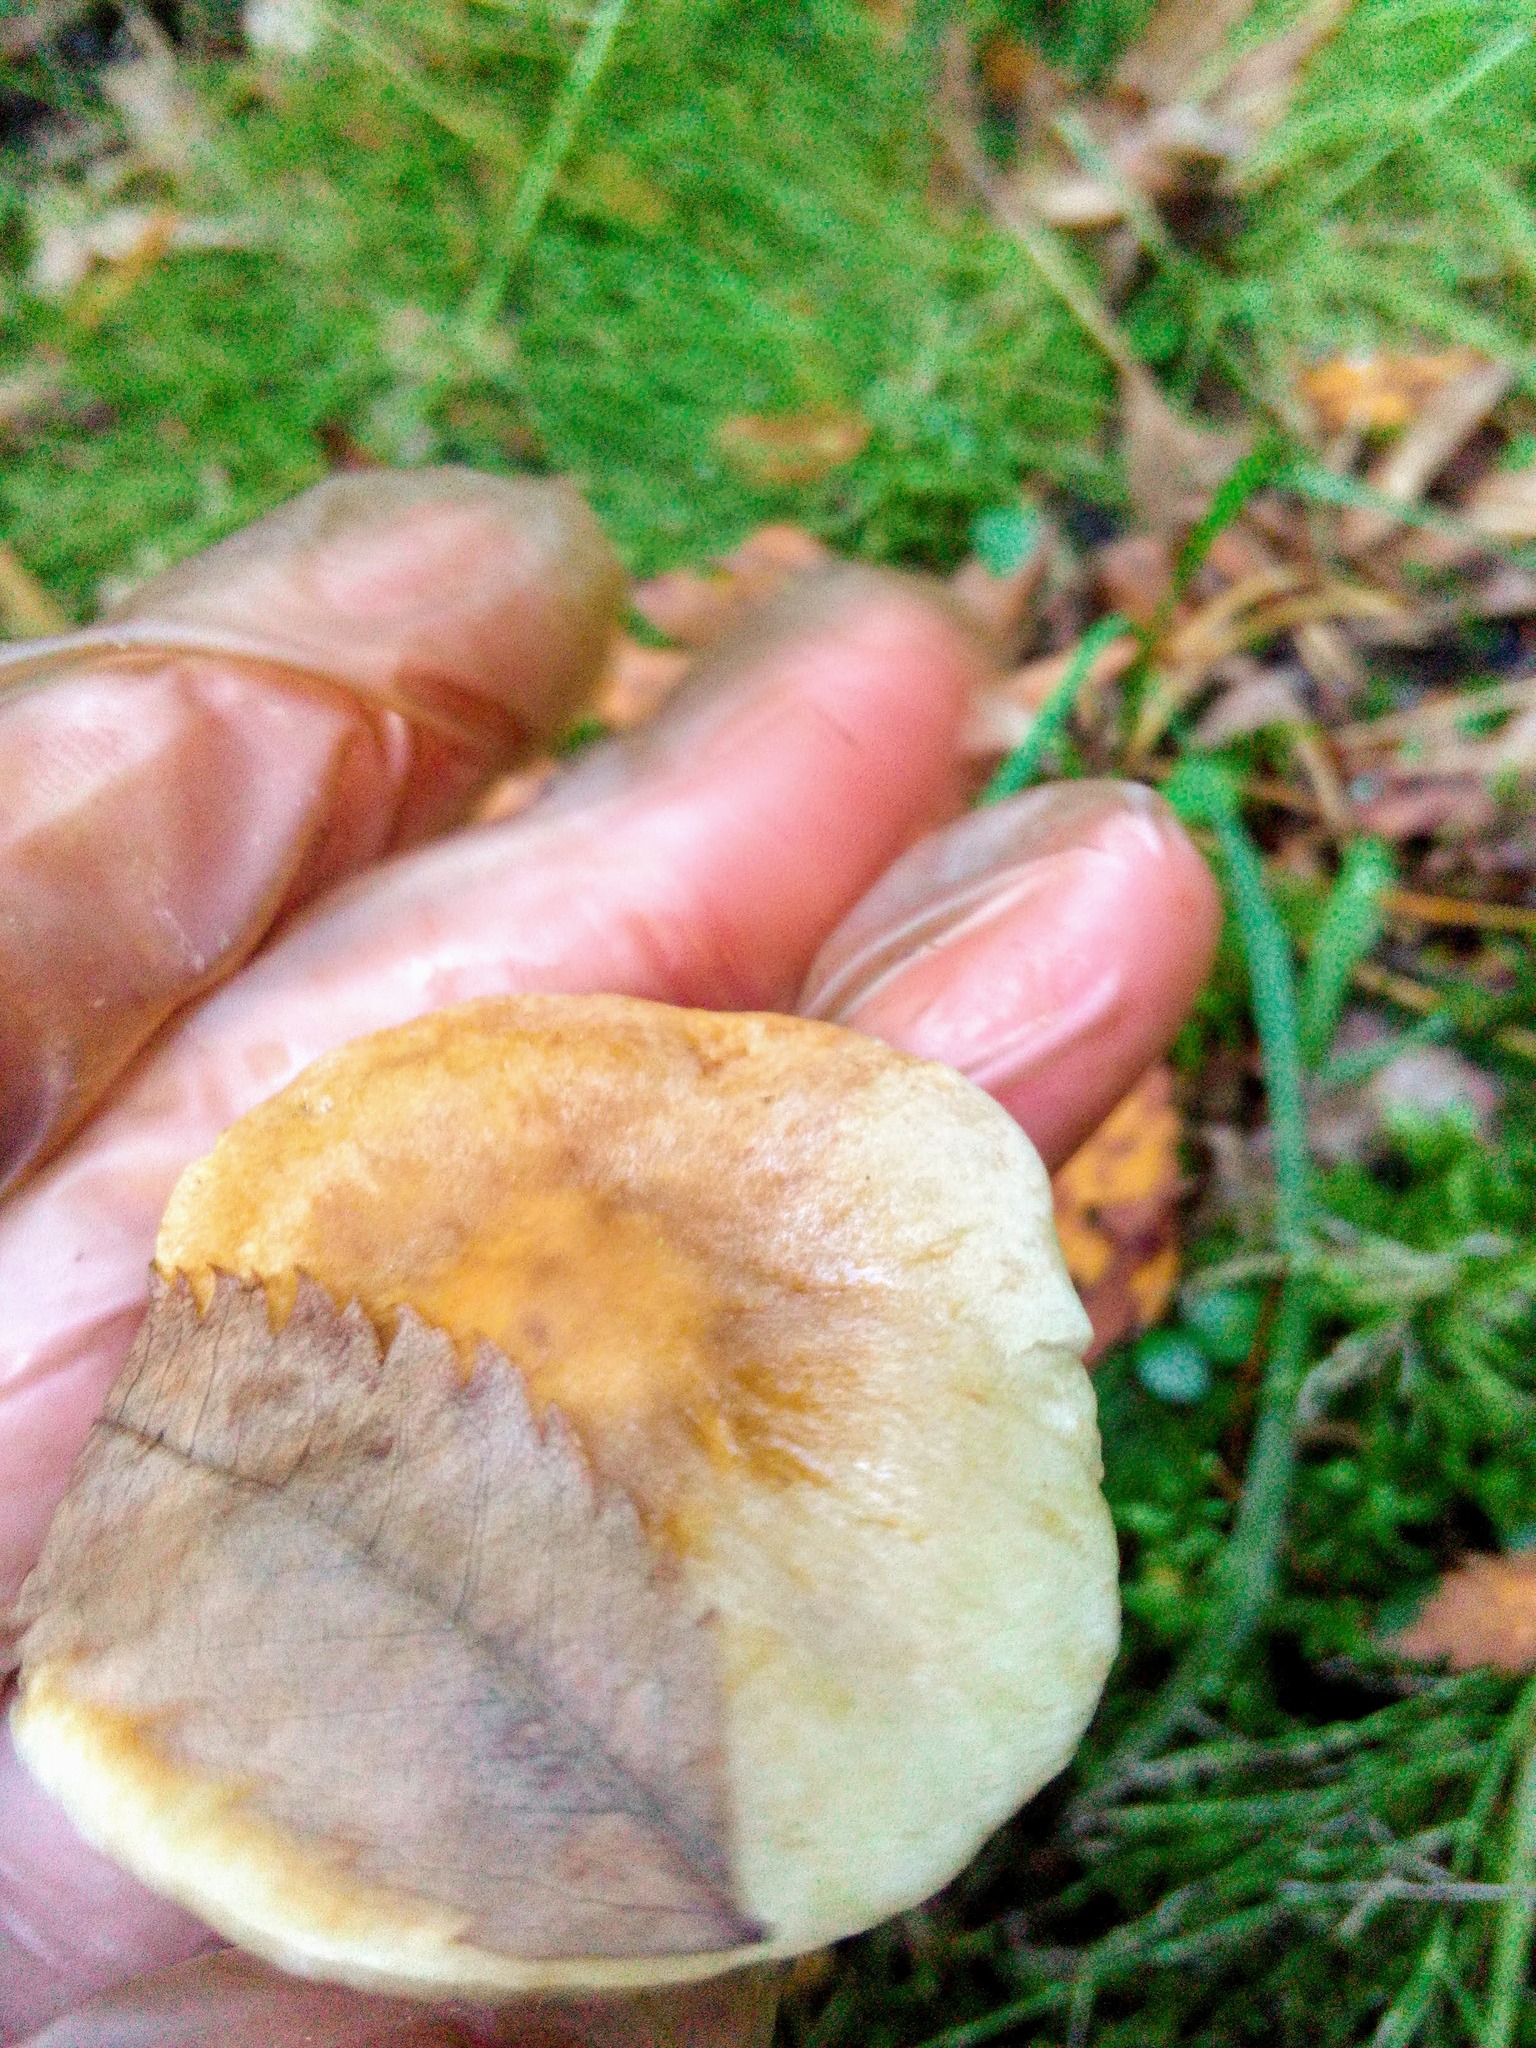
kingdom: Fungi
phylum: Basidiomycota
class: Agaricomycetes
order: Agaricales
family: Strophariaceae
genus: Hypholoma
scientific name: Hypholoma capnoides
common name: Conifer tuft
